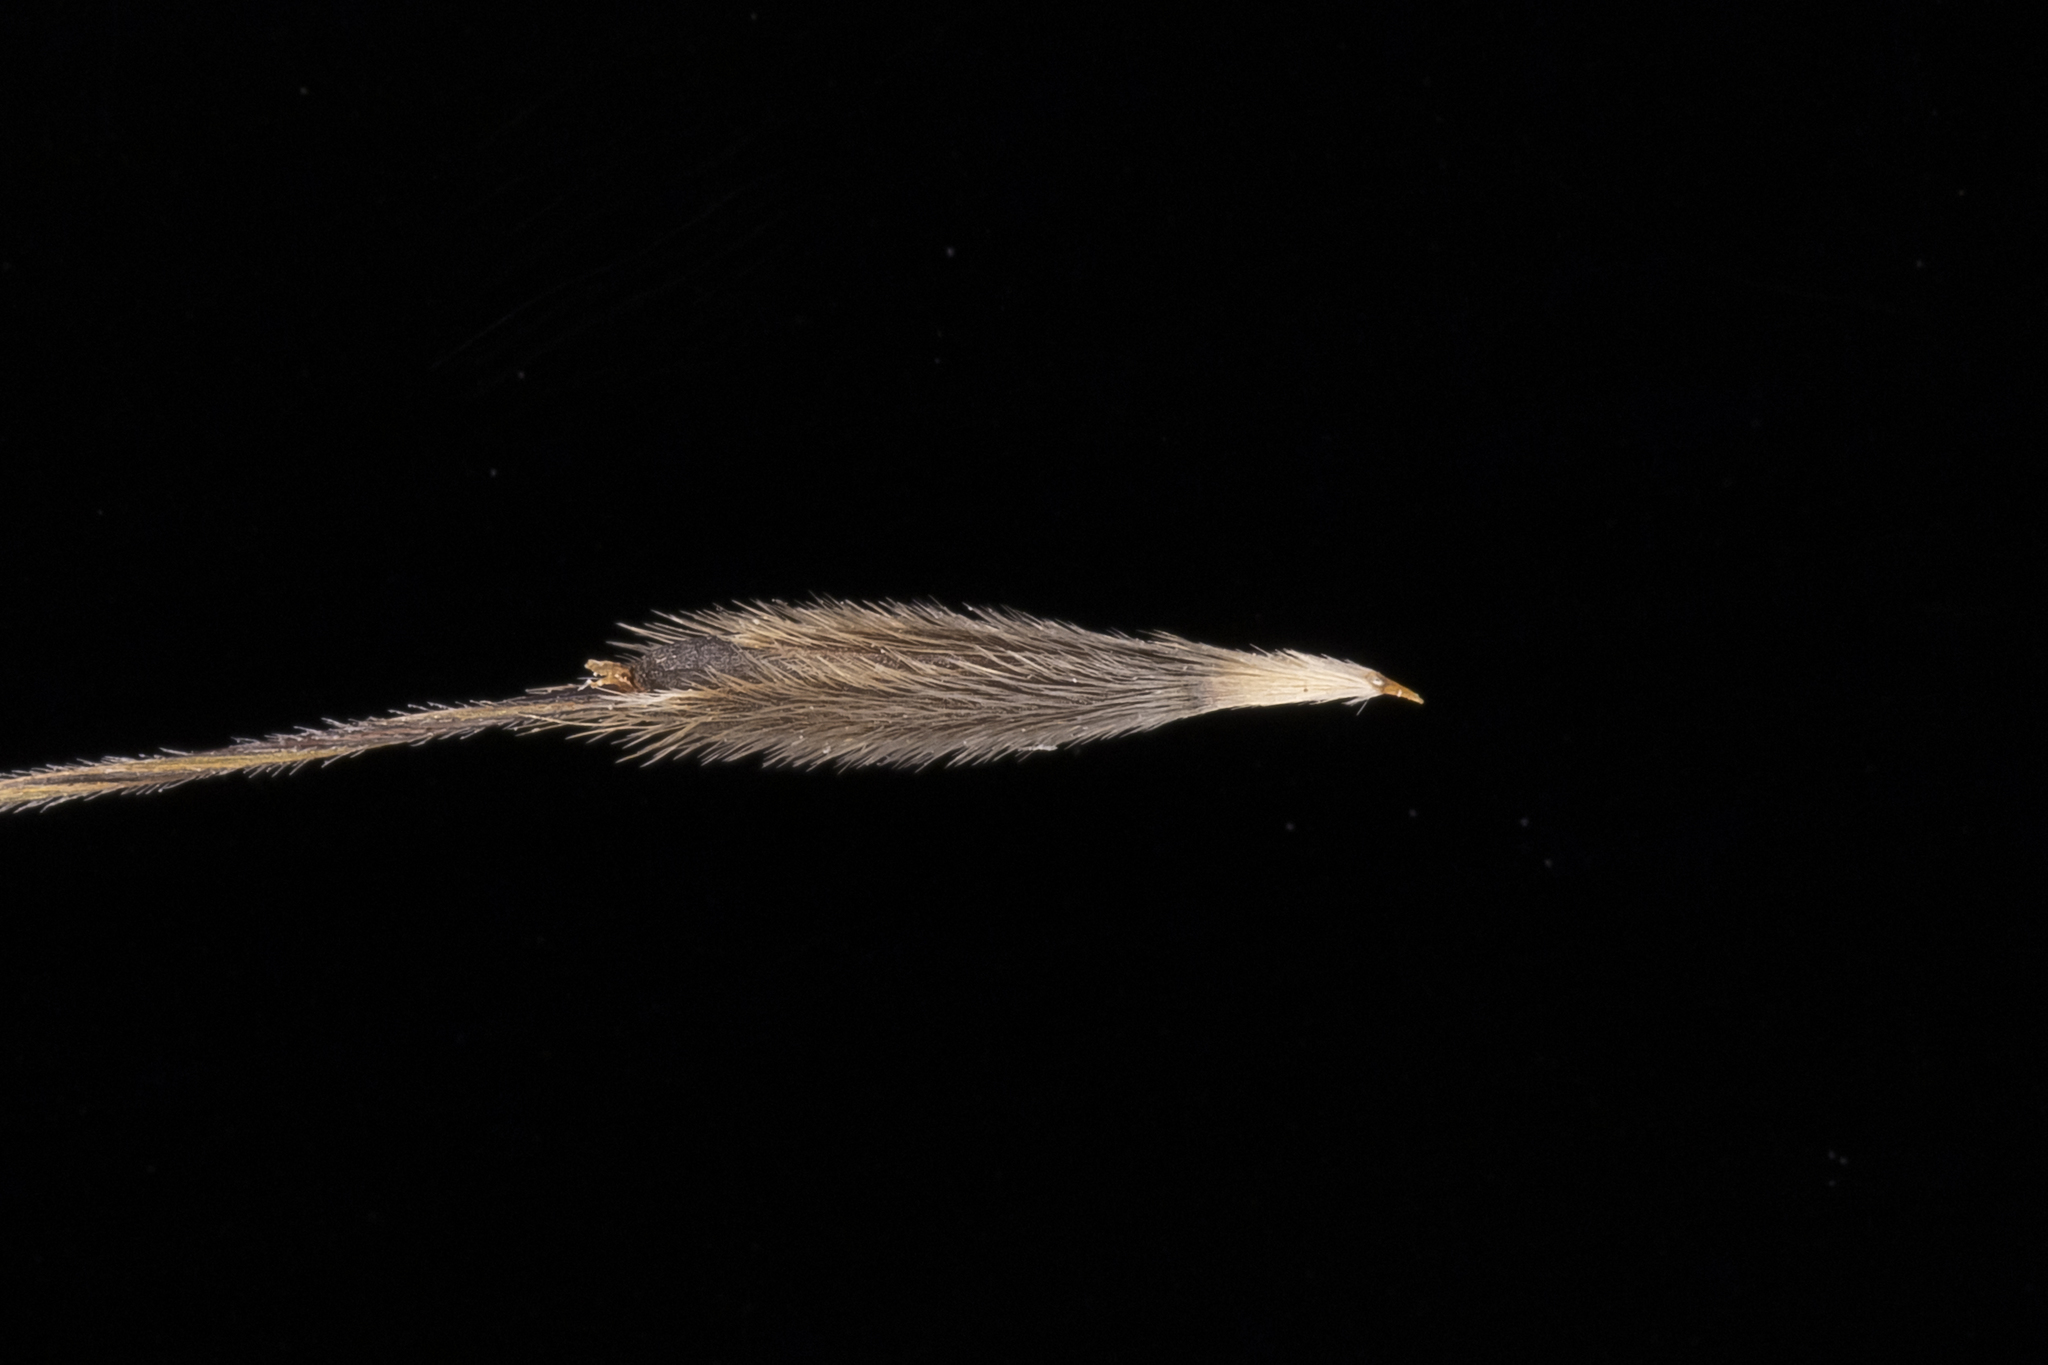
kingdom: Plantae
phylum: Tracheophyta
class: Liliopsida
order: Poales
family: Poaceae
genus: Austrostipa
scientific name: Austrostipa acrociliata
